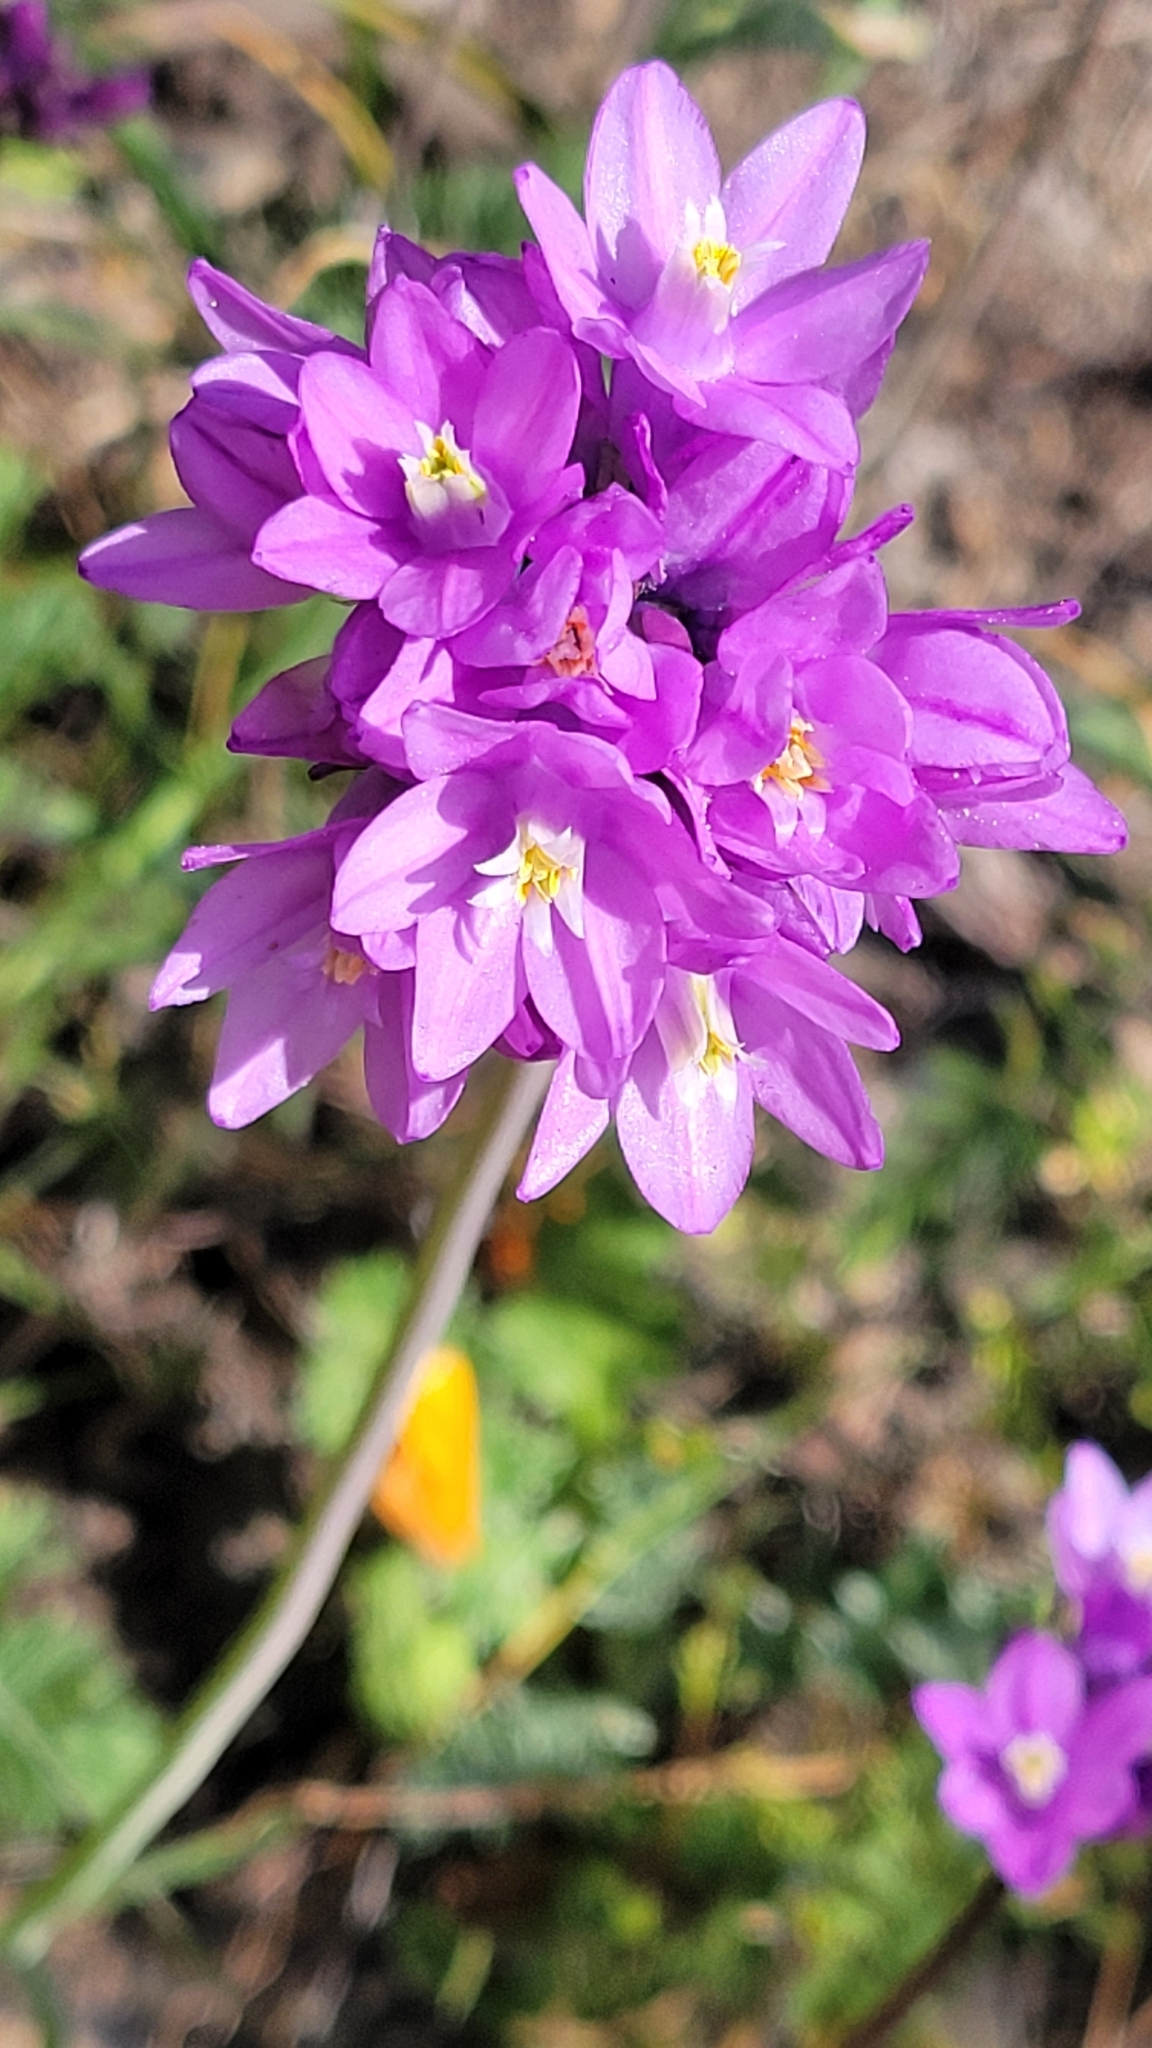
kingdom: Plantae
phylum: Tracheophyta
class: Liliopsida
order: Asparagales
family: Asparagaceae
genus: Dipterostemon
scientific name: Dipterostemon capitatus
